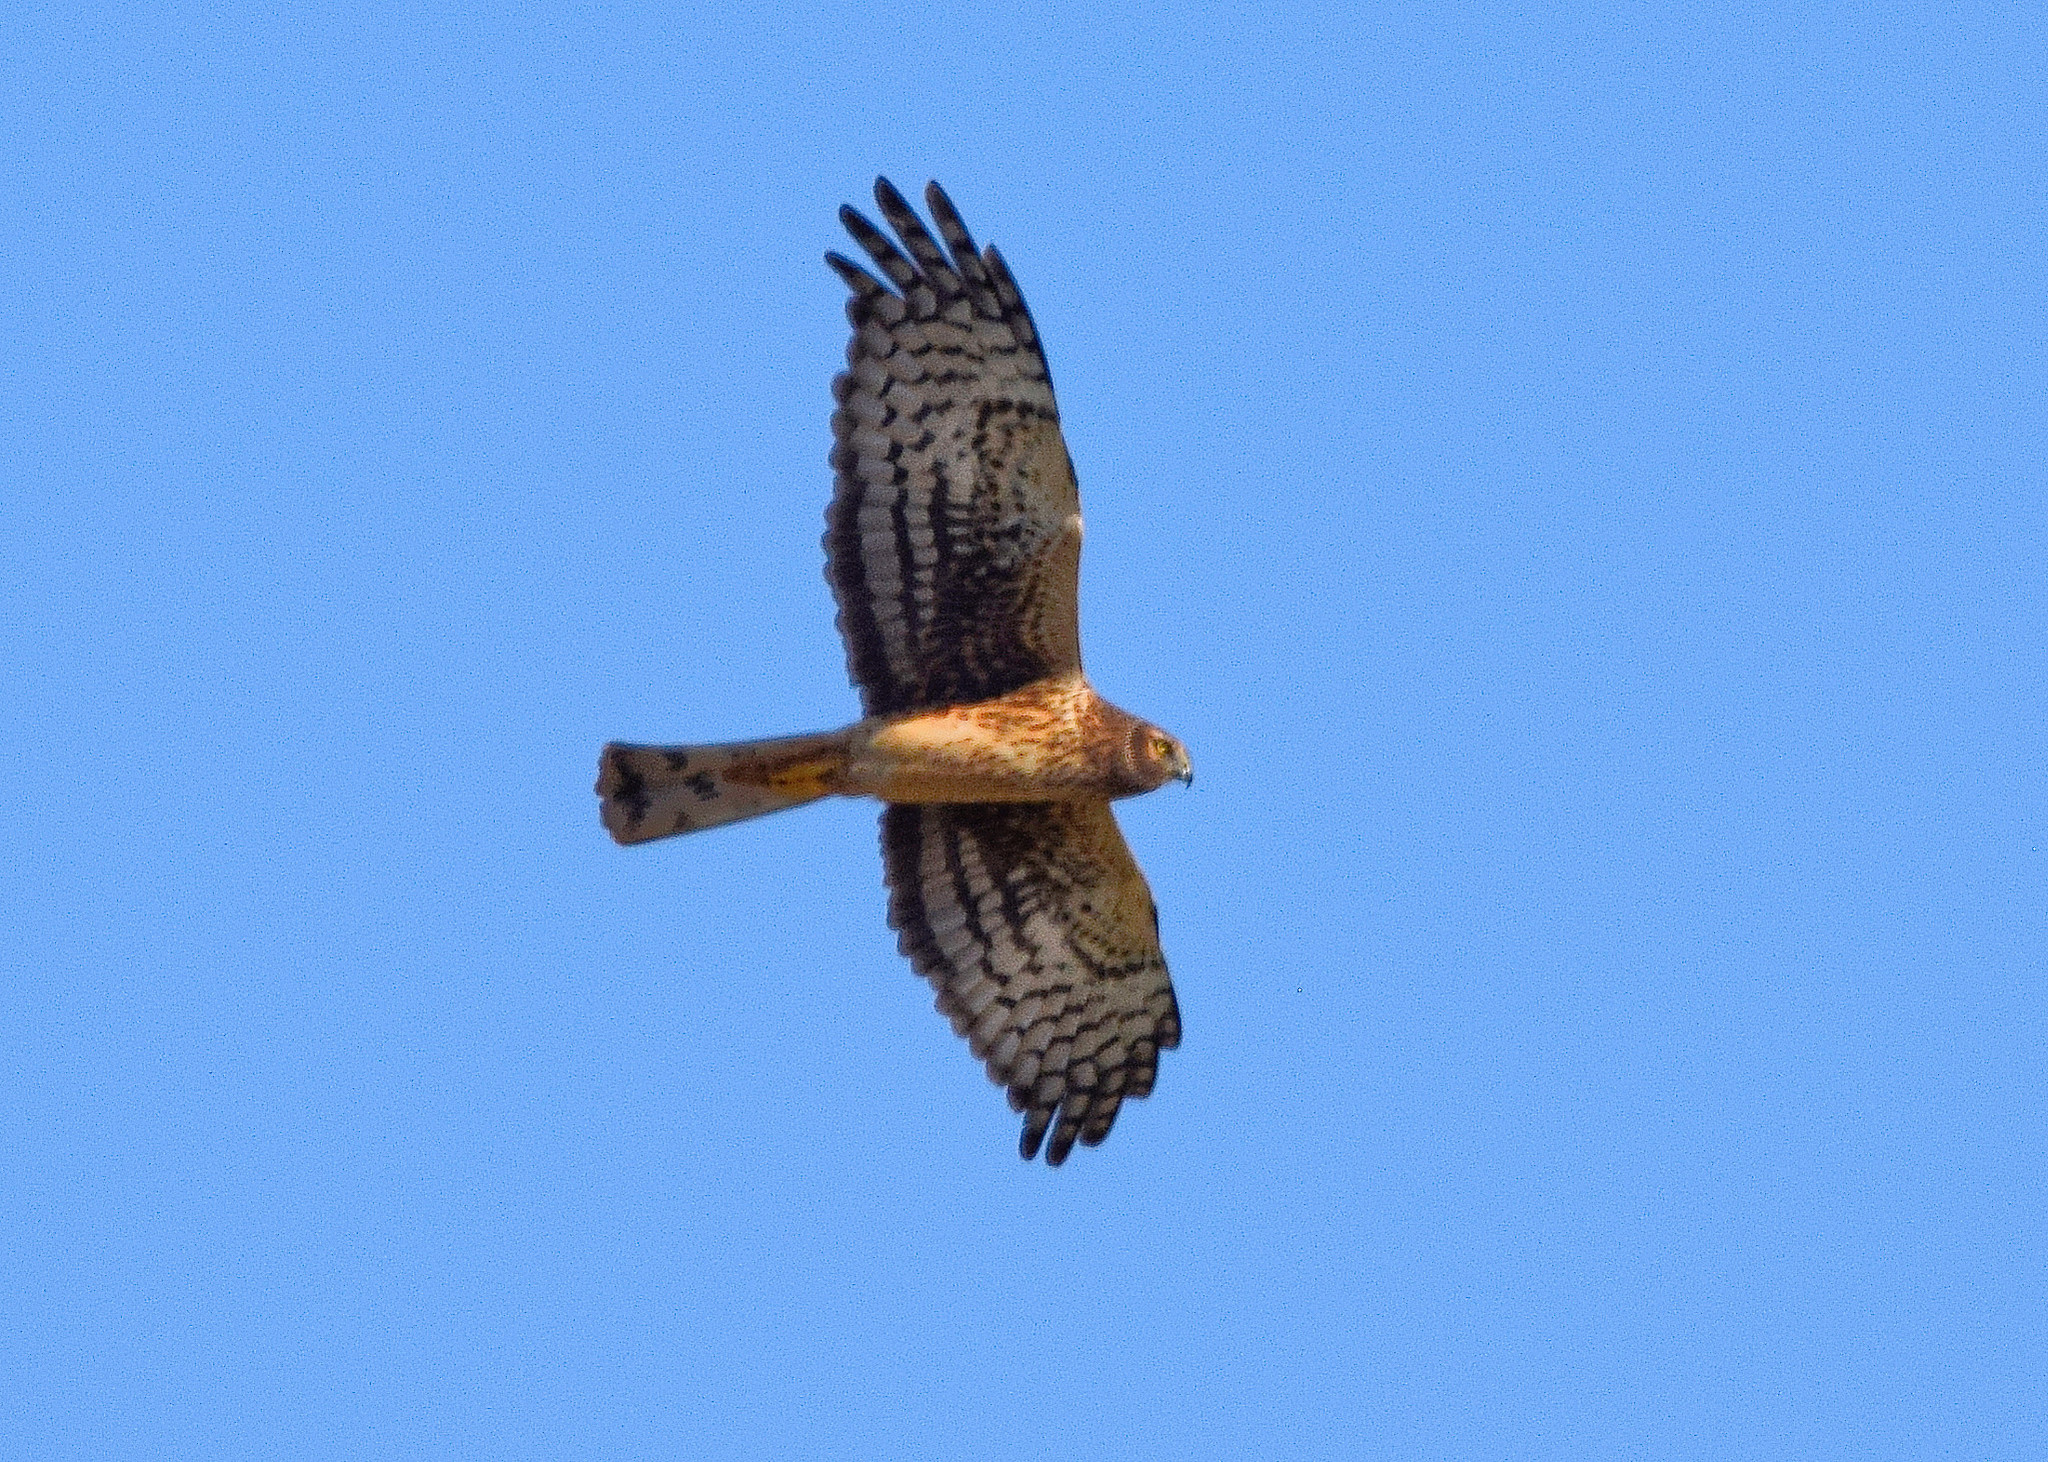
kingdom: Animalia
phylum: Chordata
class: Aves
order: Accipitriformes
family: Accipitridae
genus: Circus
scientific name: Circus cyaneus
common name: Hen harrier
